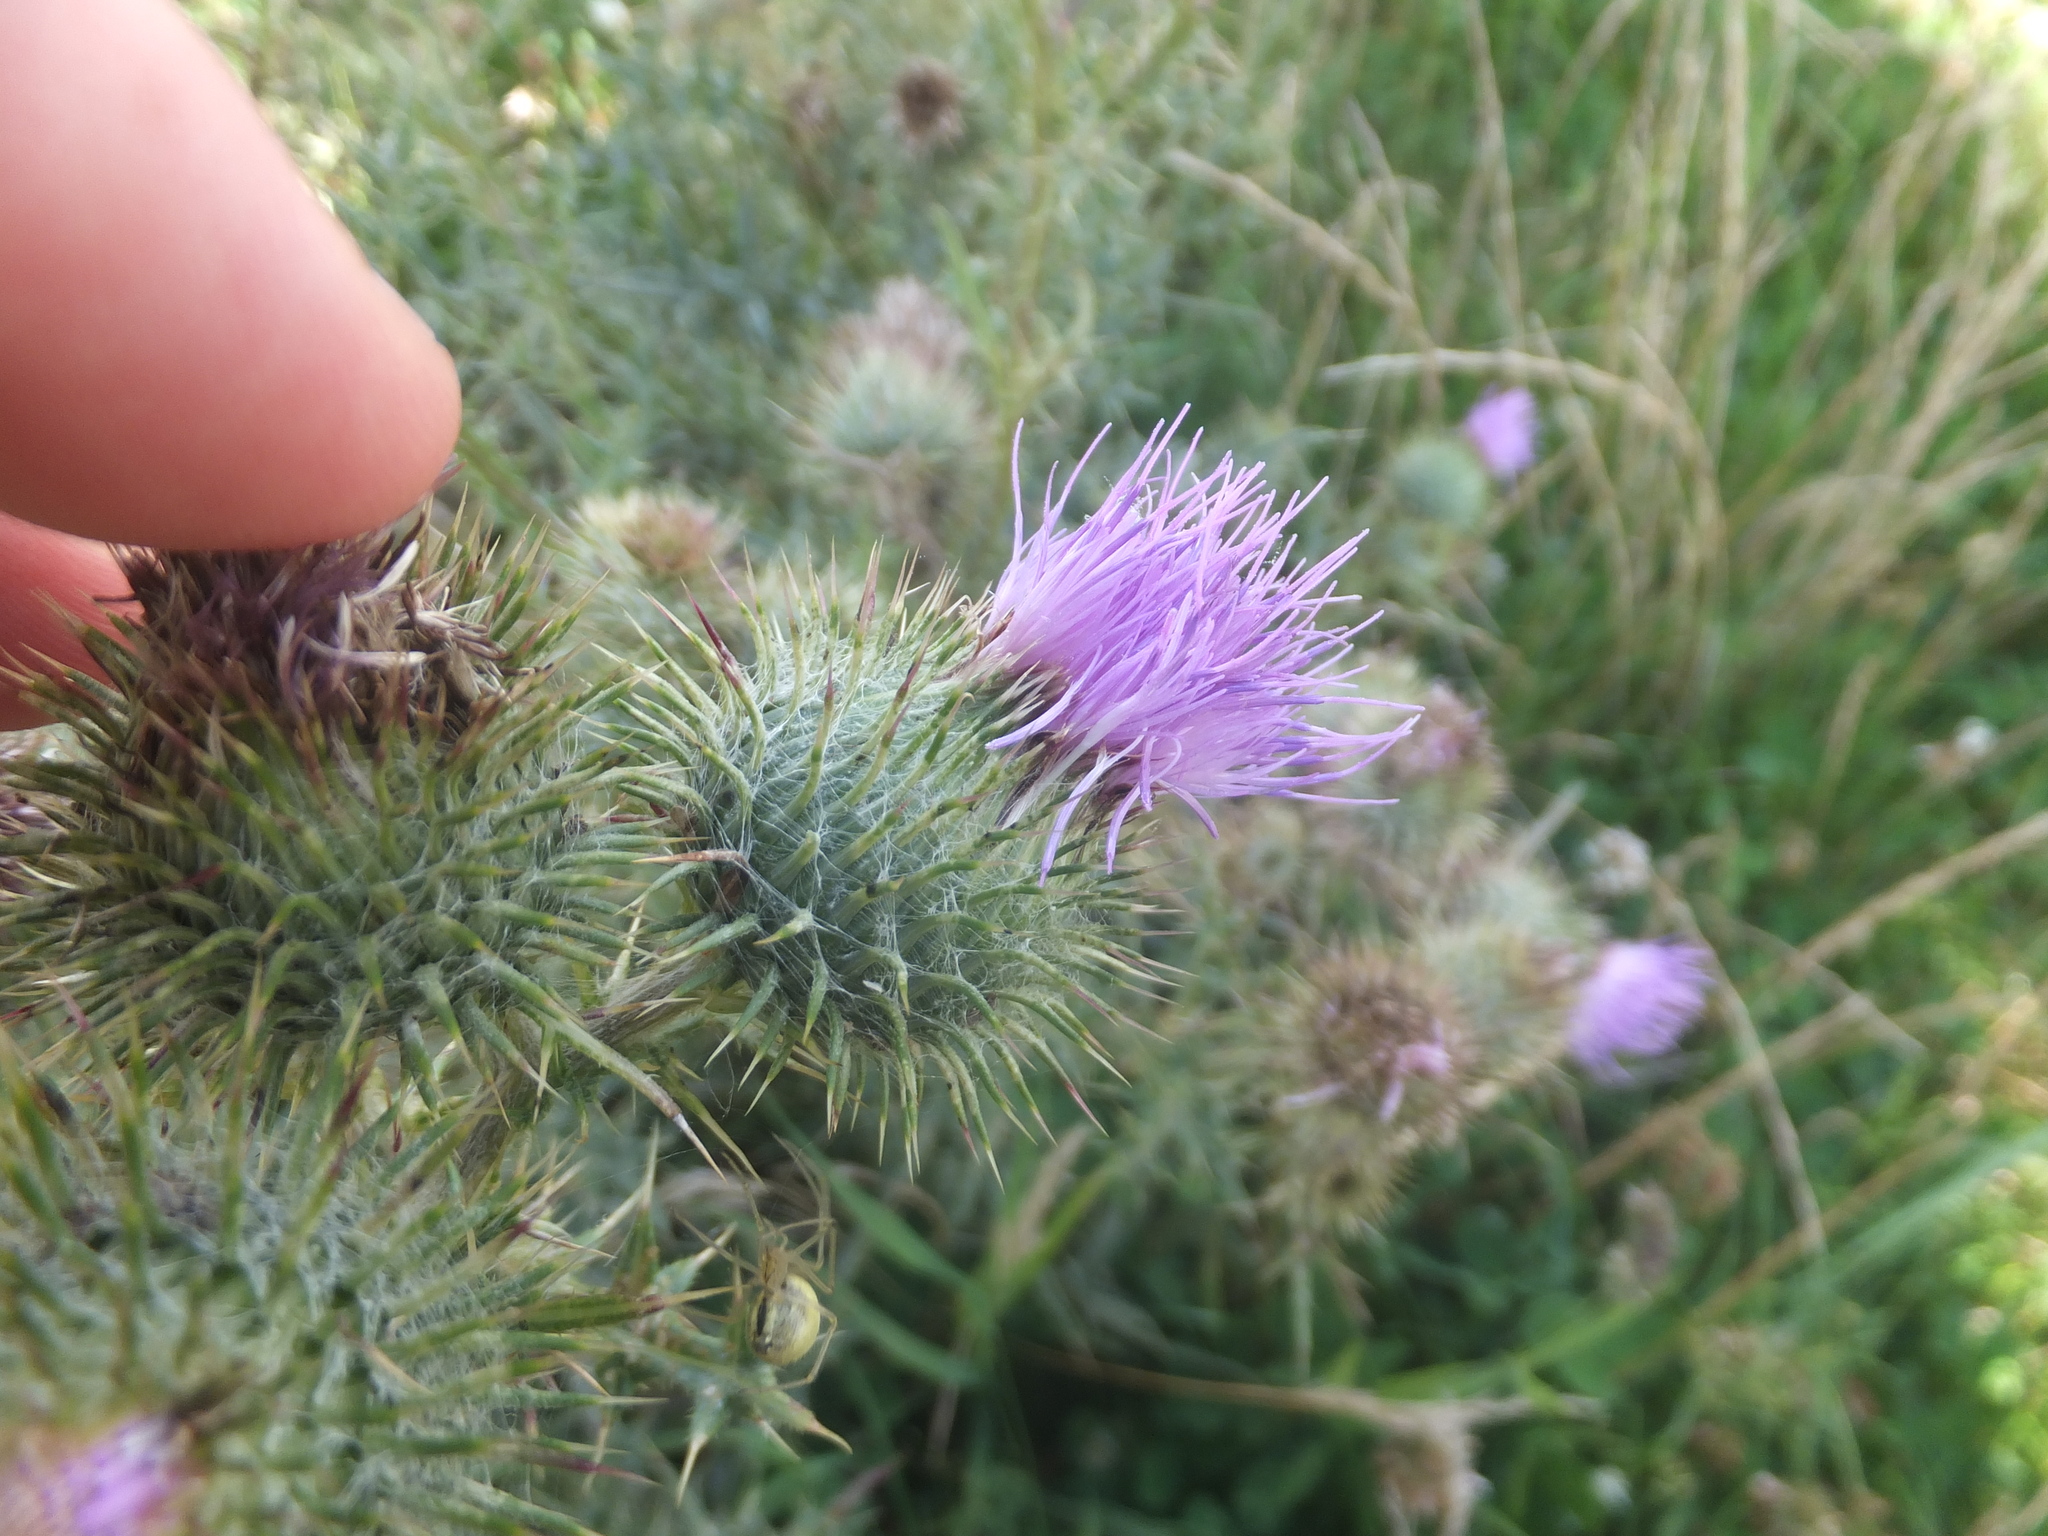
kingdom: Plantae
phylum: Tracheophyta
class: Magnoliopsida
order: Asterales
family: Asteraceae
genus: Cirsium
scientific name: Cirsium vulgare
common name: Bull thistle
